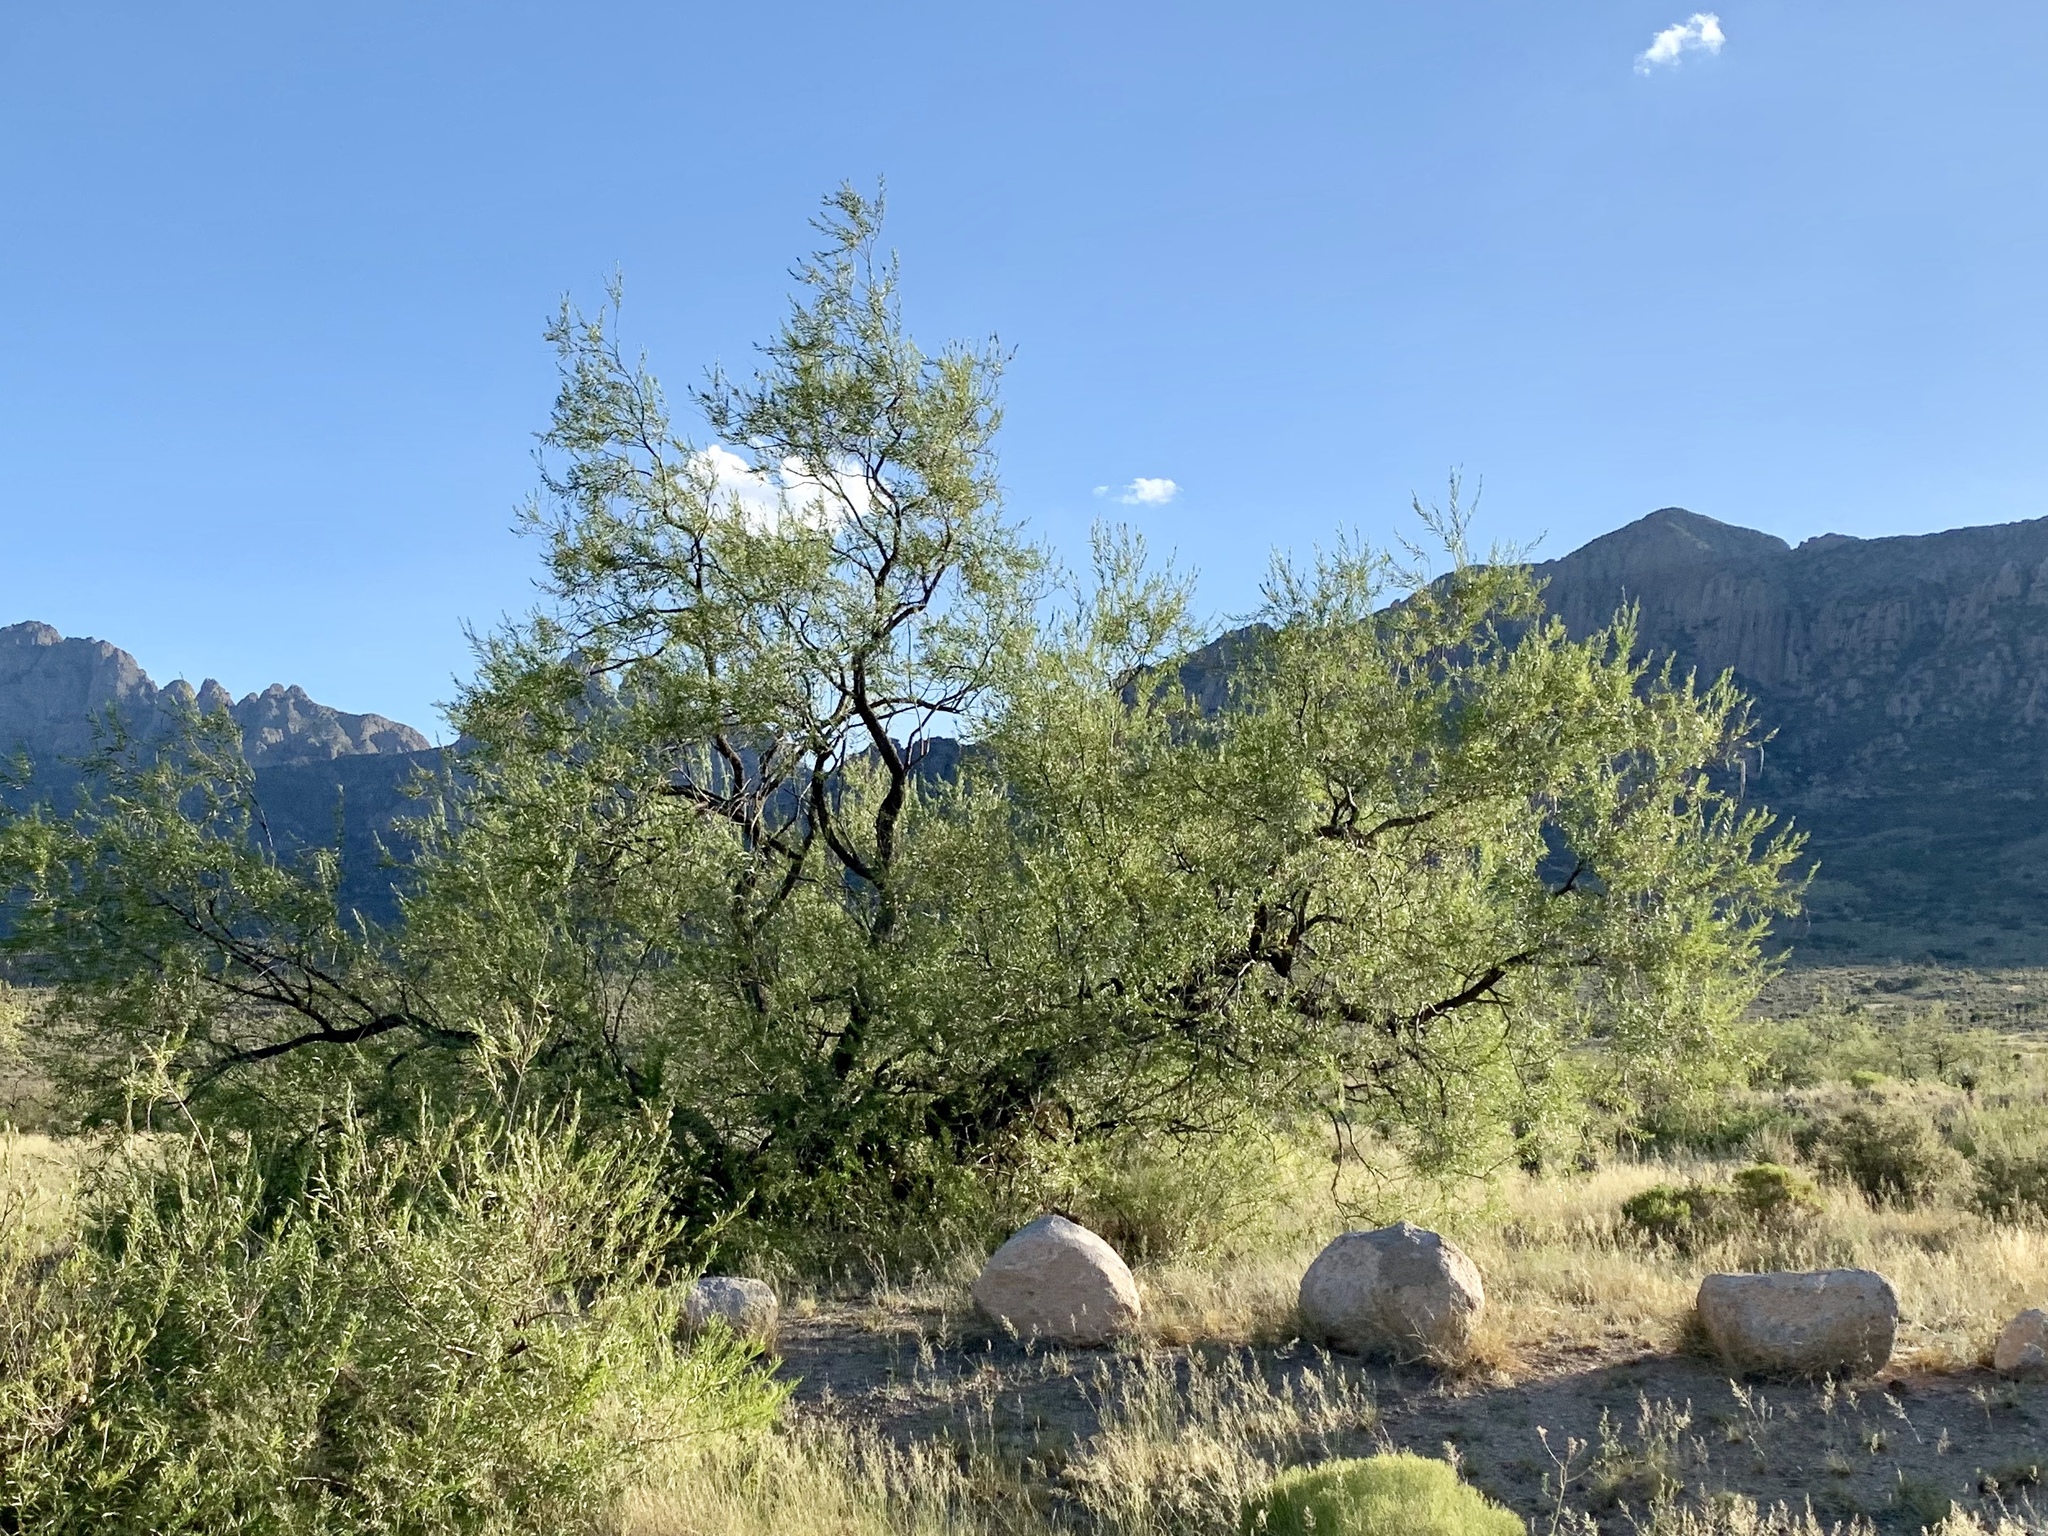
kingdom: Plantae
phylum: Tracheophyta
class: Magnoliopsida
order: Lamiales
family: Bignoniaceae
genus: Chilopsis
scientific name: Chilopsis linearis
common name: Desert-willow
